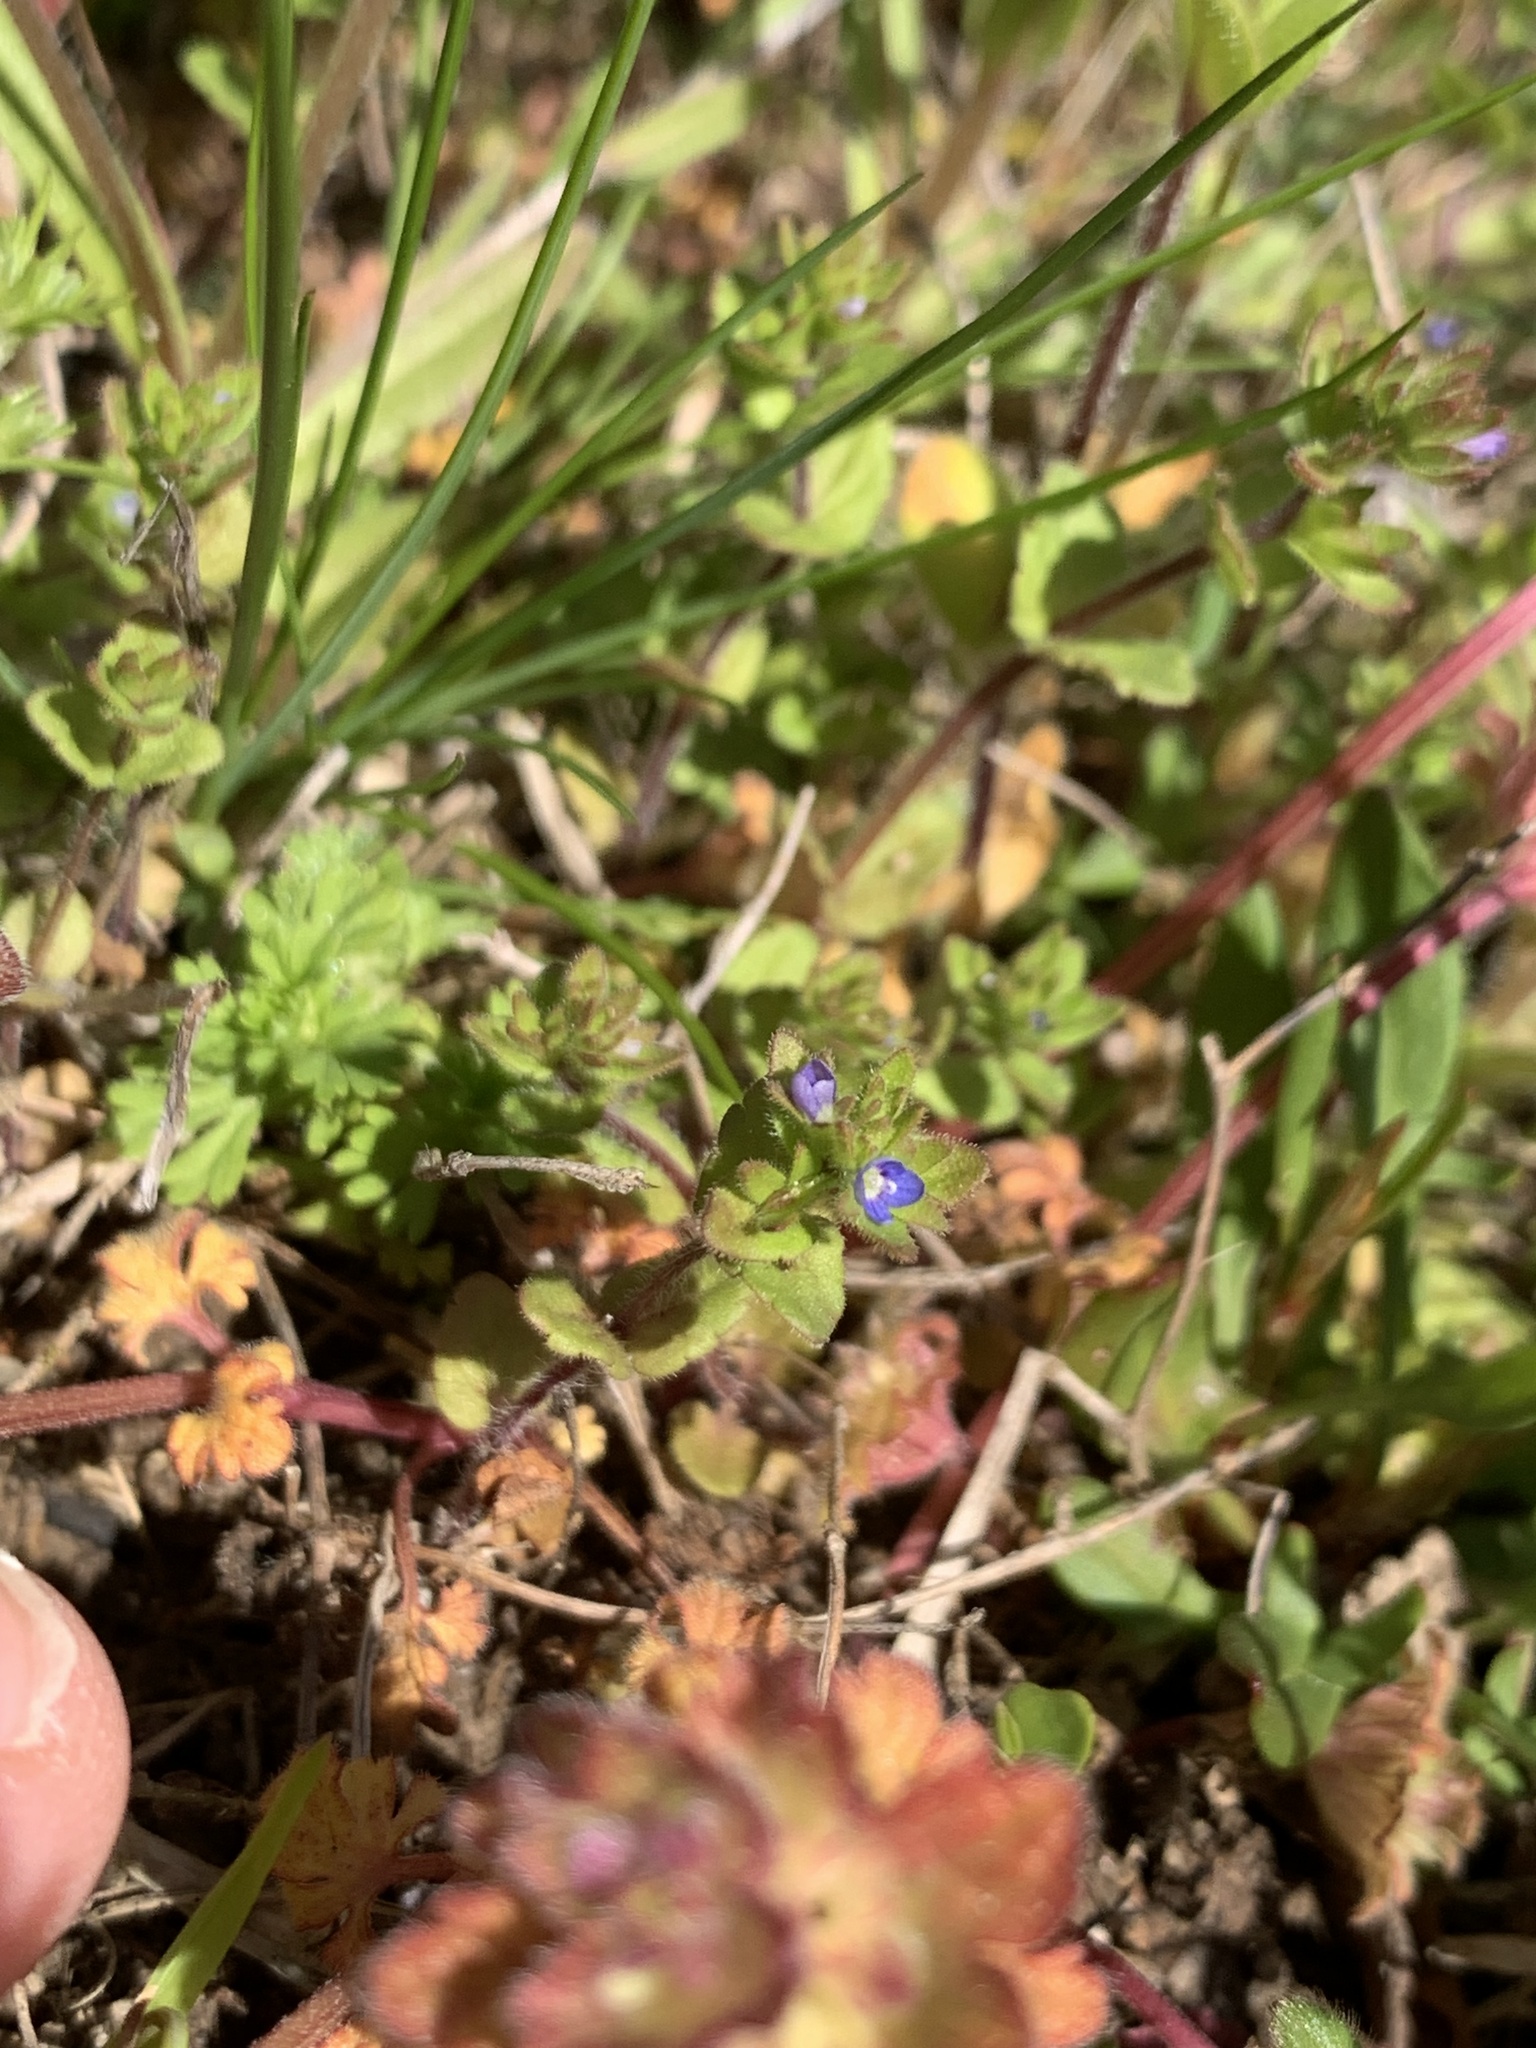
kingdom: Plantae
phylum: Tracheophyta
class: Magnoliopsida
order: Lamiales
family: Plantaginaceae
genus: Veronica
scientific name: Veronica arvensis
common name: Corn speedwell
